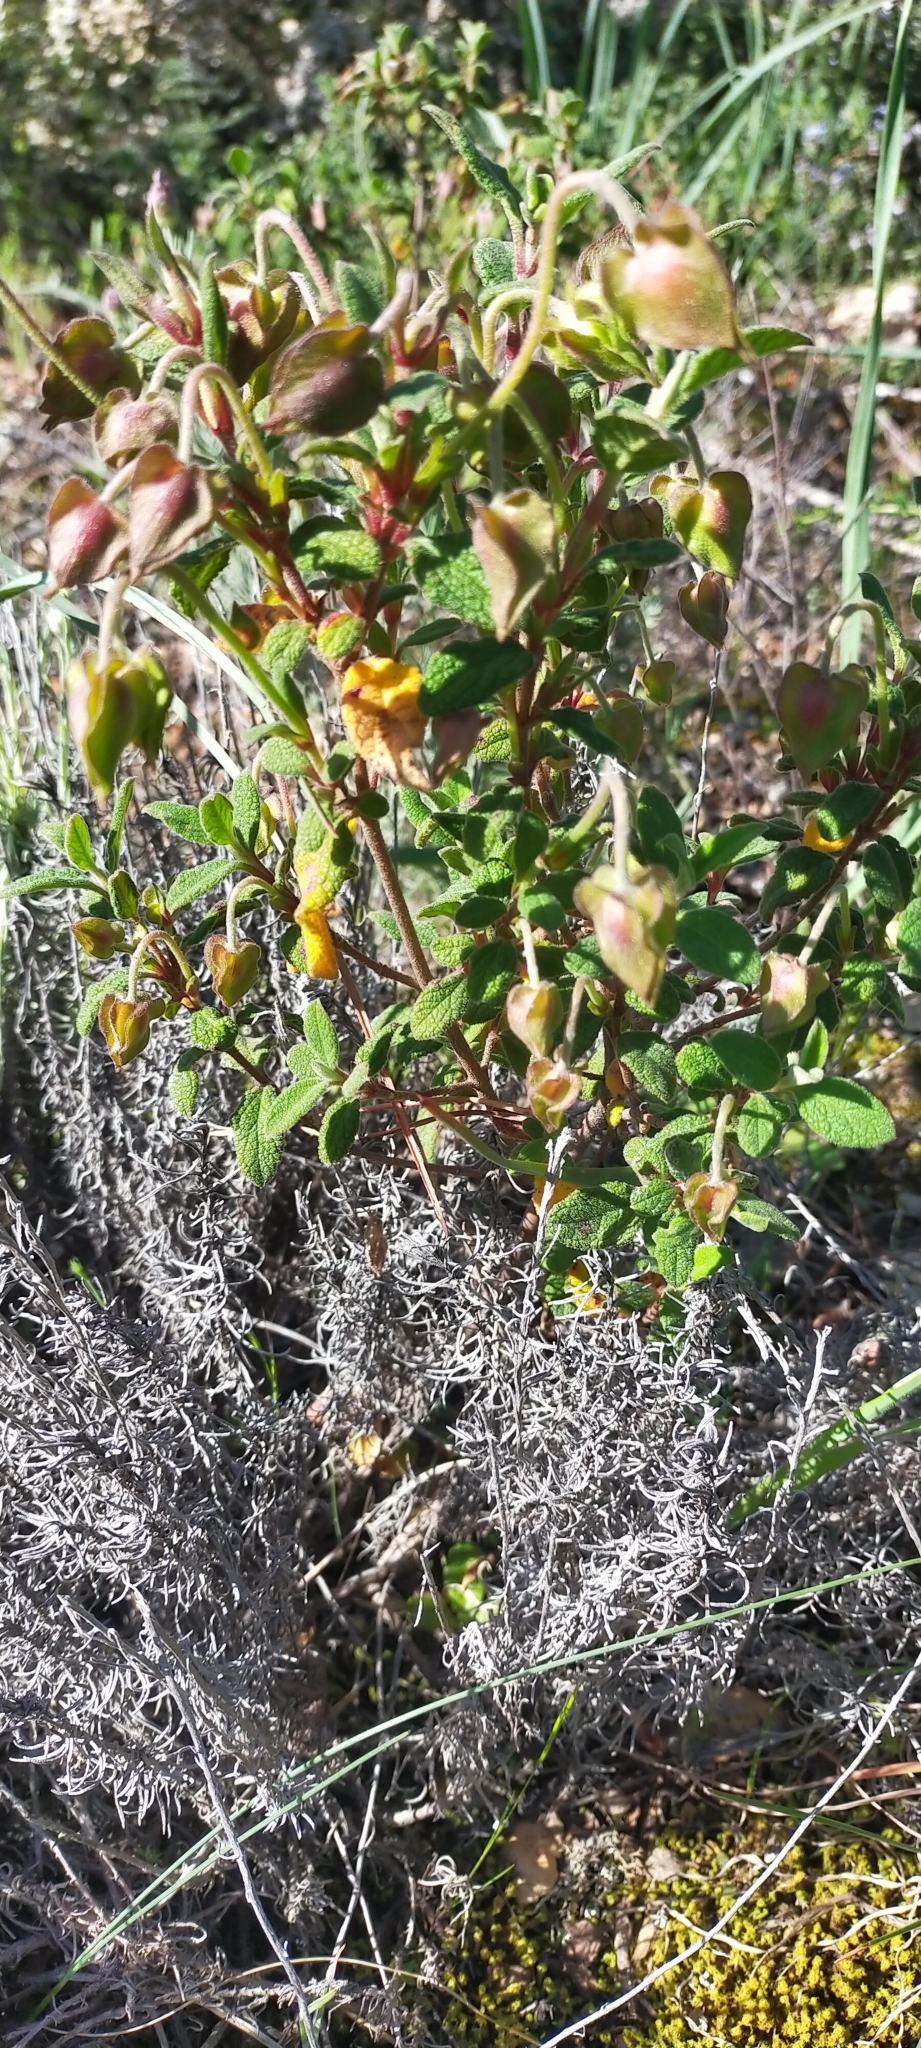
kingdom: Plantae
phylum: Tracheophyta
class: Magnoliopsida
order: Malvales
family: Cistaceae
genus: Cistus
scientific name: Cistus salviifolius
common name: Salvia cistus
